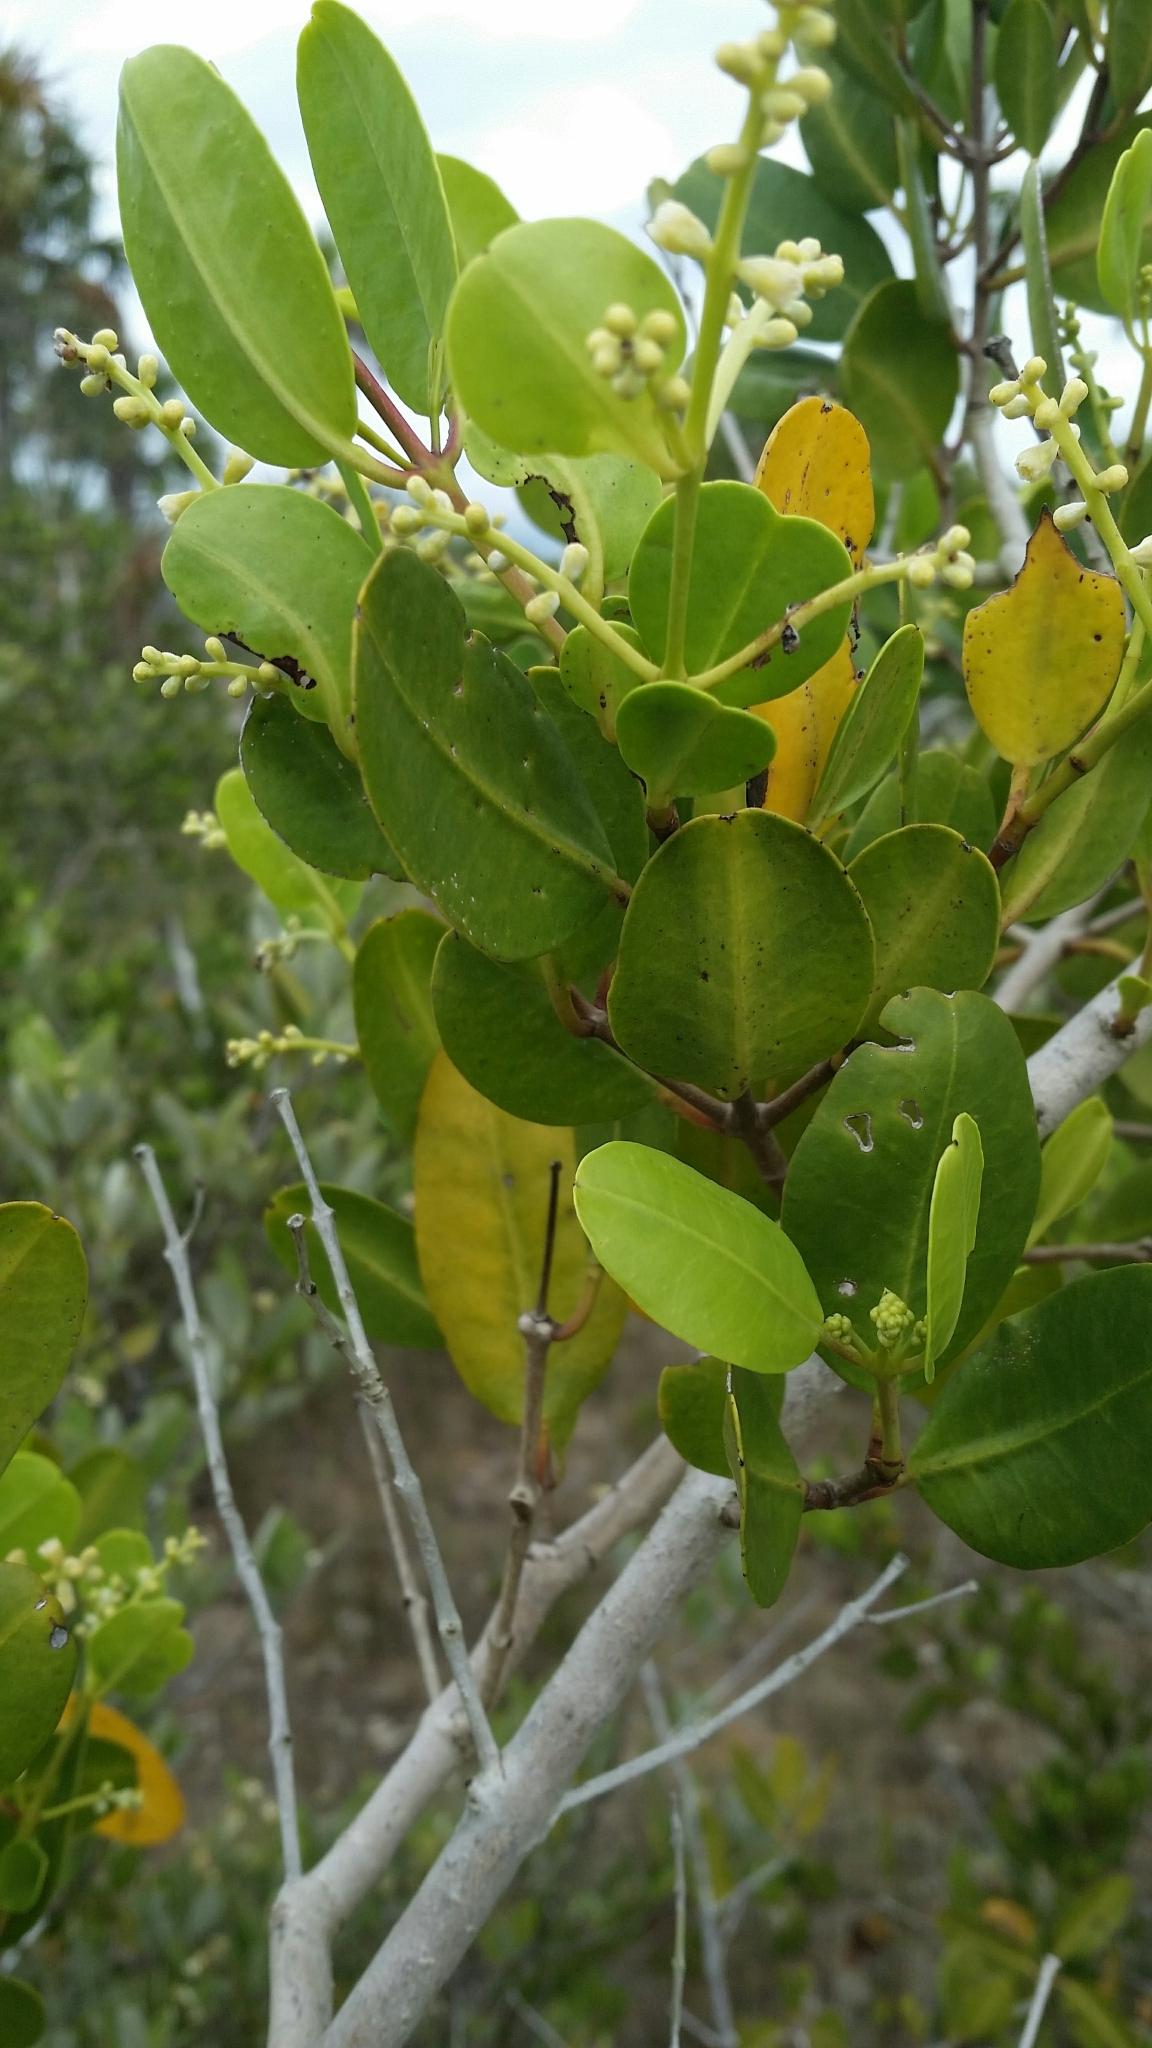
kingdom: Plantae
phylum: Tracheophyta
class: Magnoliopsida
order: Myrtales
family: Combretaceae
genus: Laguncularia
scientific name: Laguncularia racemosa
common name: White mangrove
